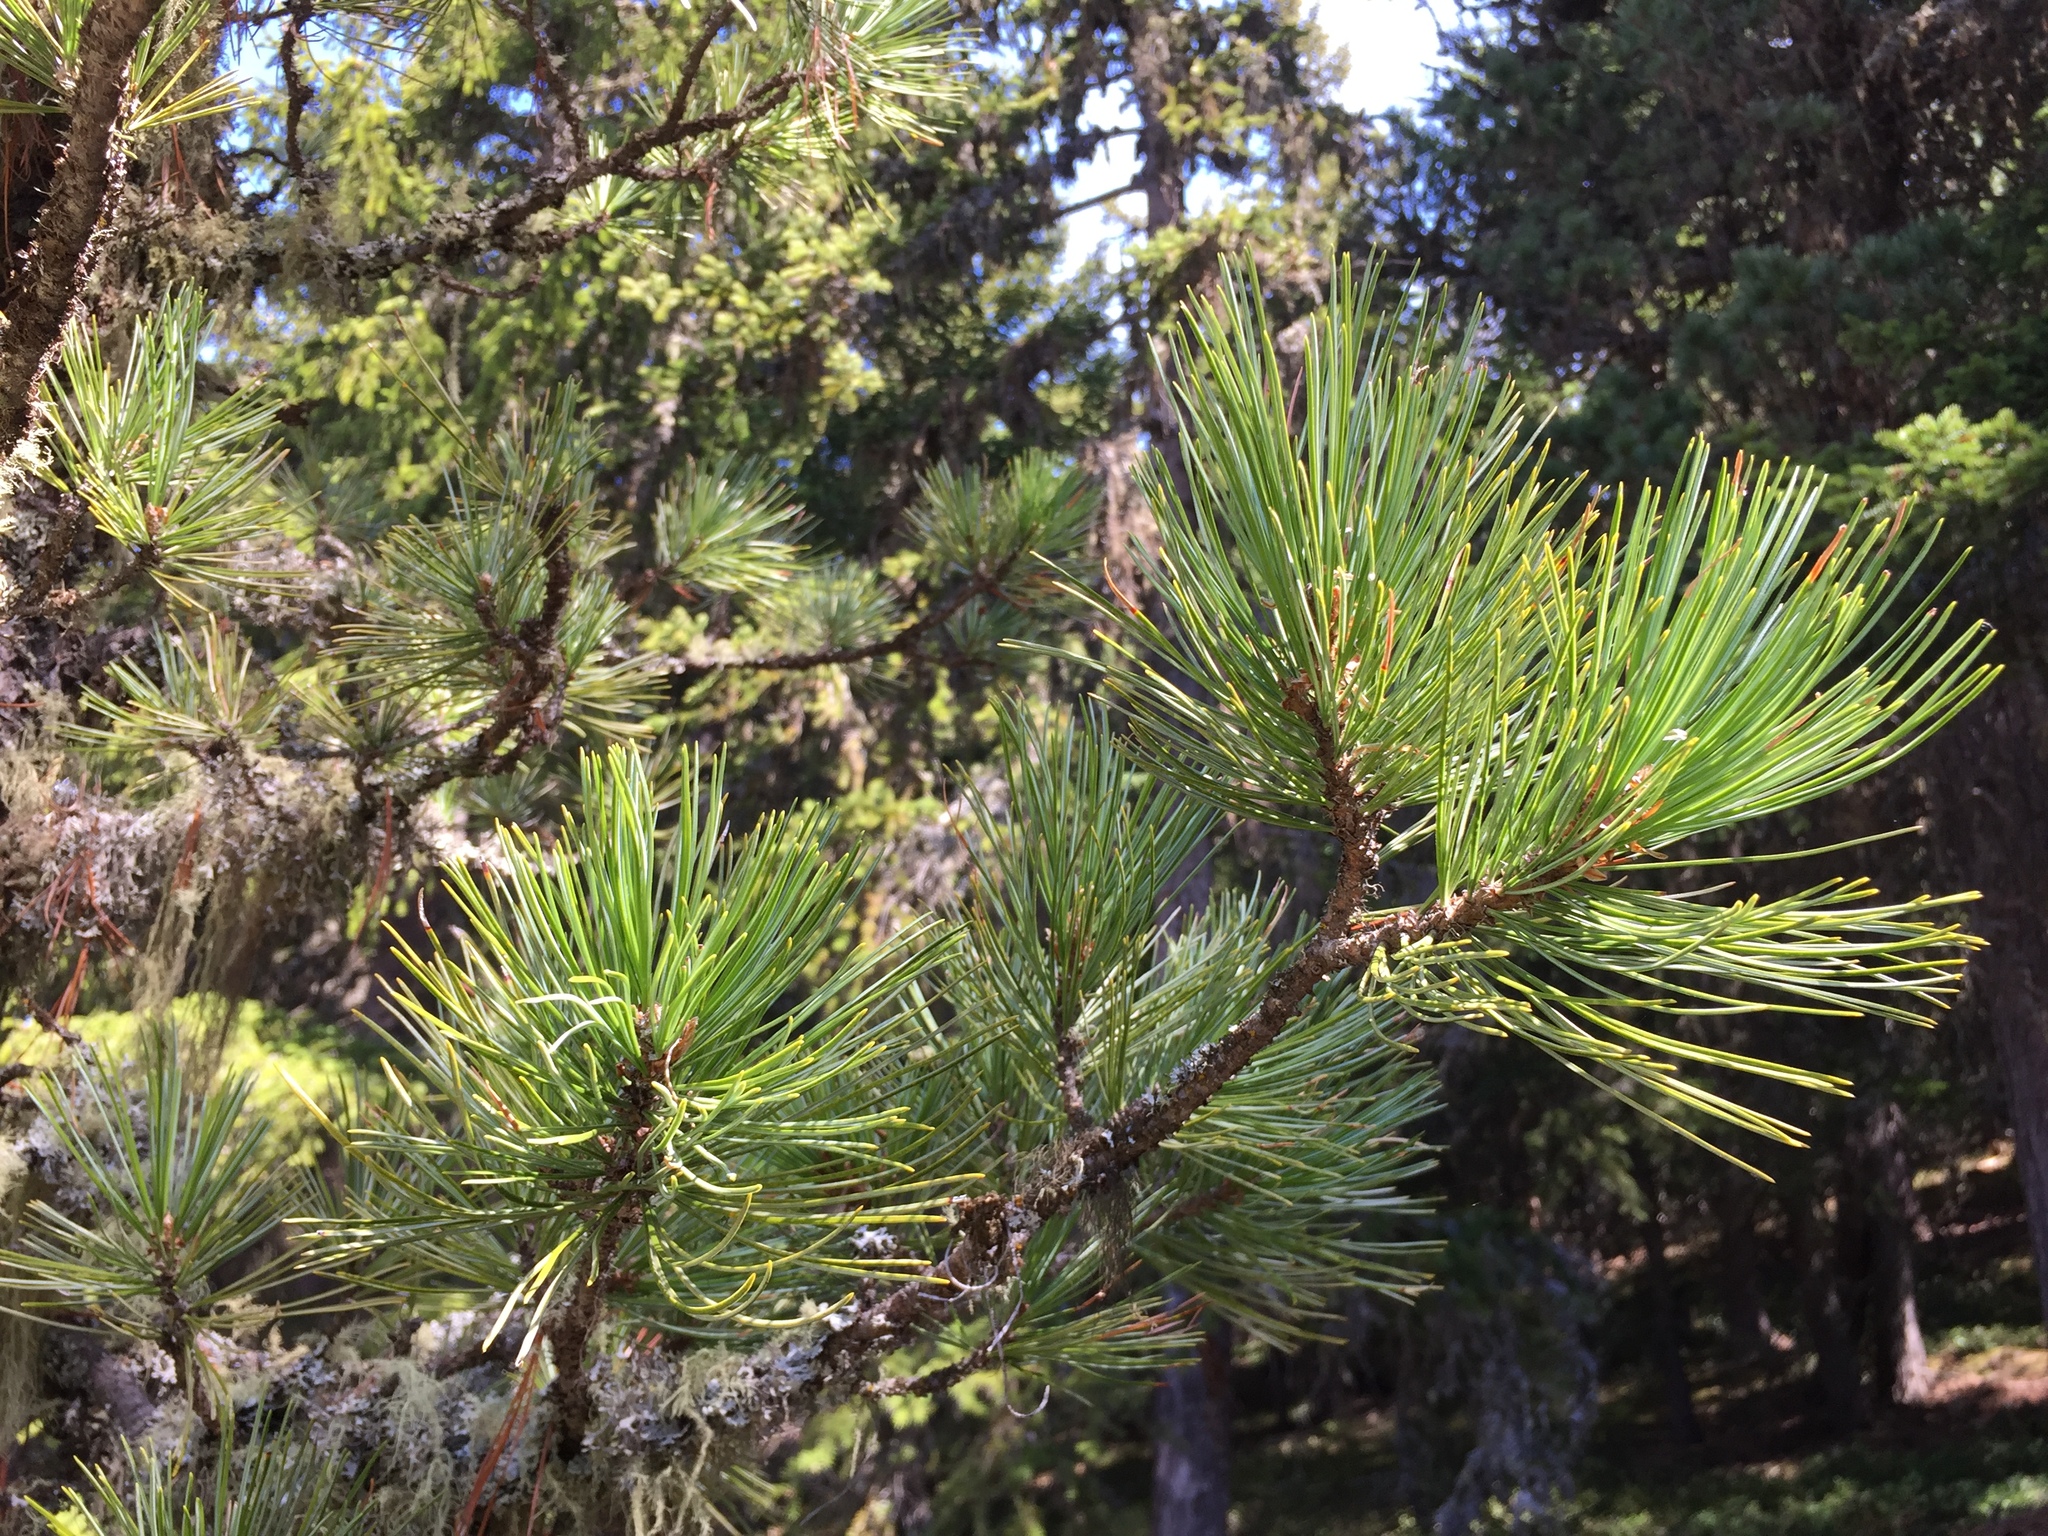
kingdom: Plantae
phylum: Tracheophyta
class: Pinopsida
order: Pinales
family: Pinaceae
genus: Pinus
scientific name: Pinus cembra
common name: Arolla pine
